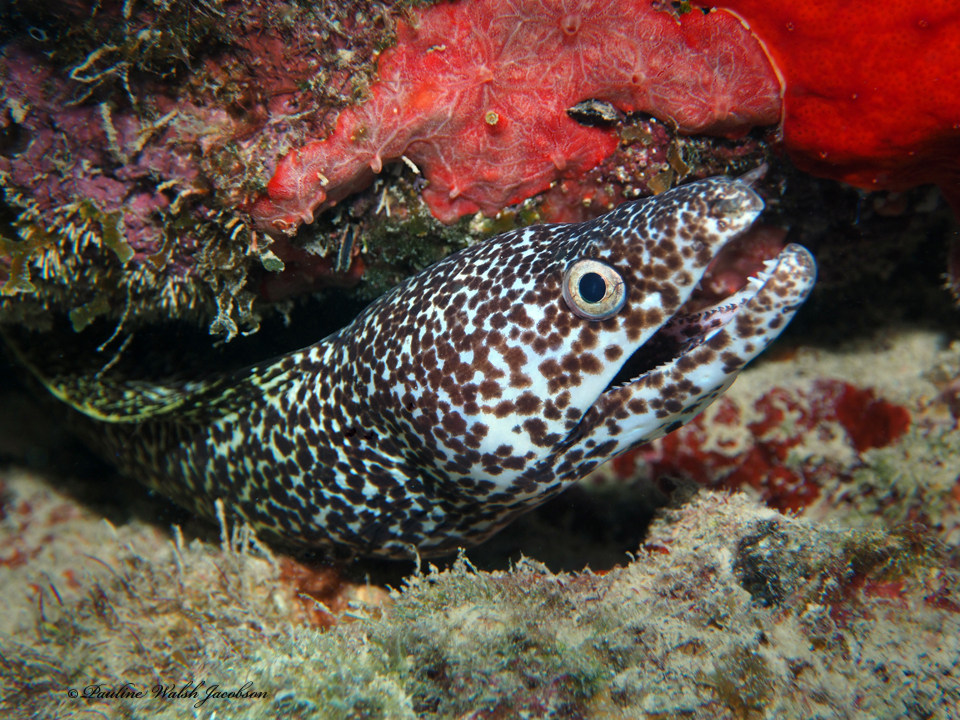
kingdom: Animalia
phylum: Chordata
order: Anguilliformes
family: Muraenidae
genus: Gymnothorax
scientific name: Gymnothorax moringa
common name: Spotted moray
